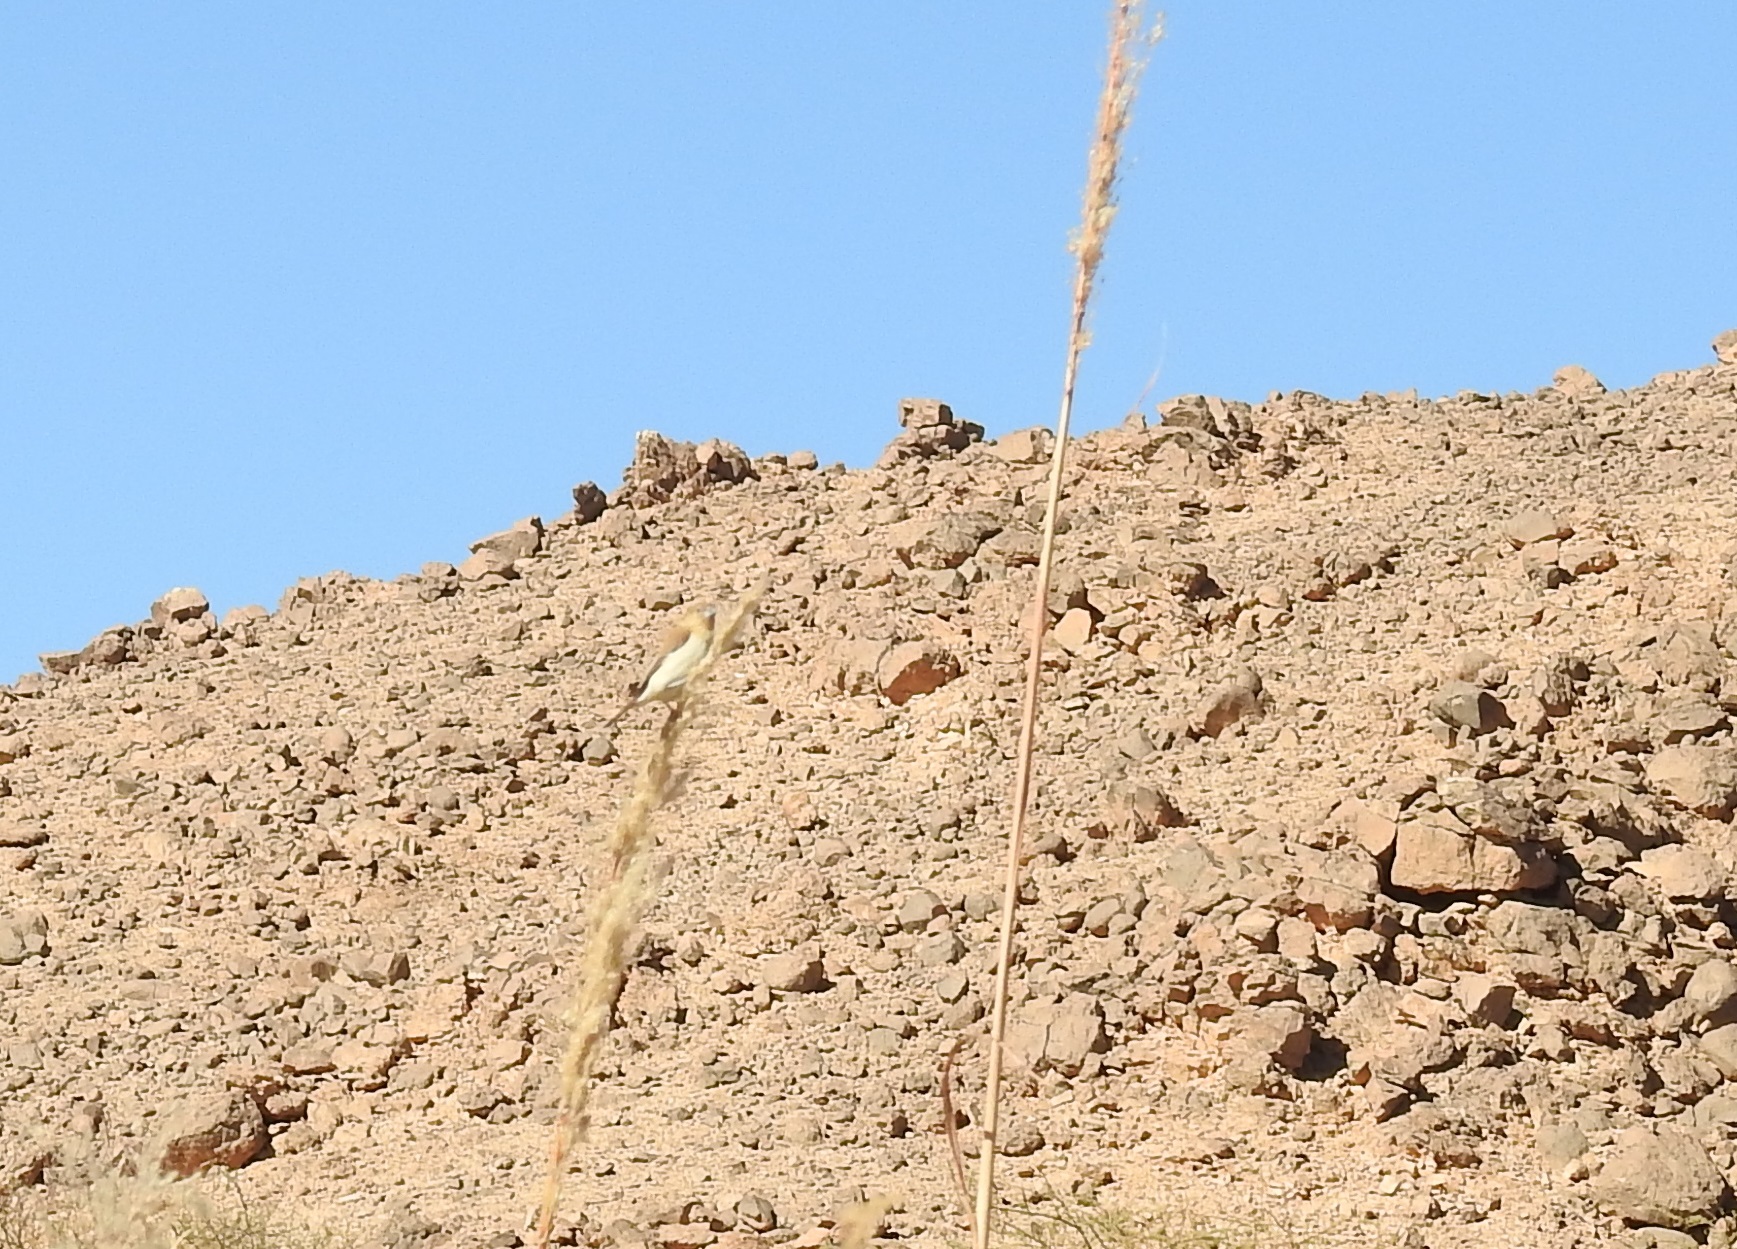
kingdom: Animalia
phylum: Chordata
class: Aves
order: Passeriformes
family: Estrildidae
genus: Euodice
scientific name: Euodice cantans
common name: African silverbill
